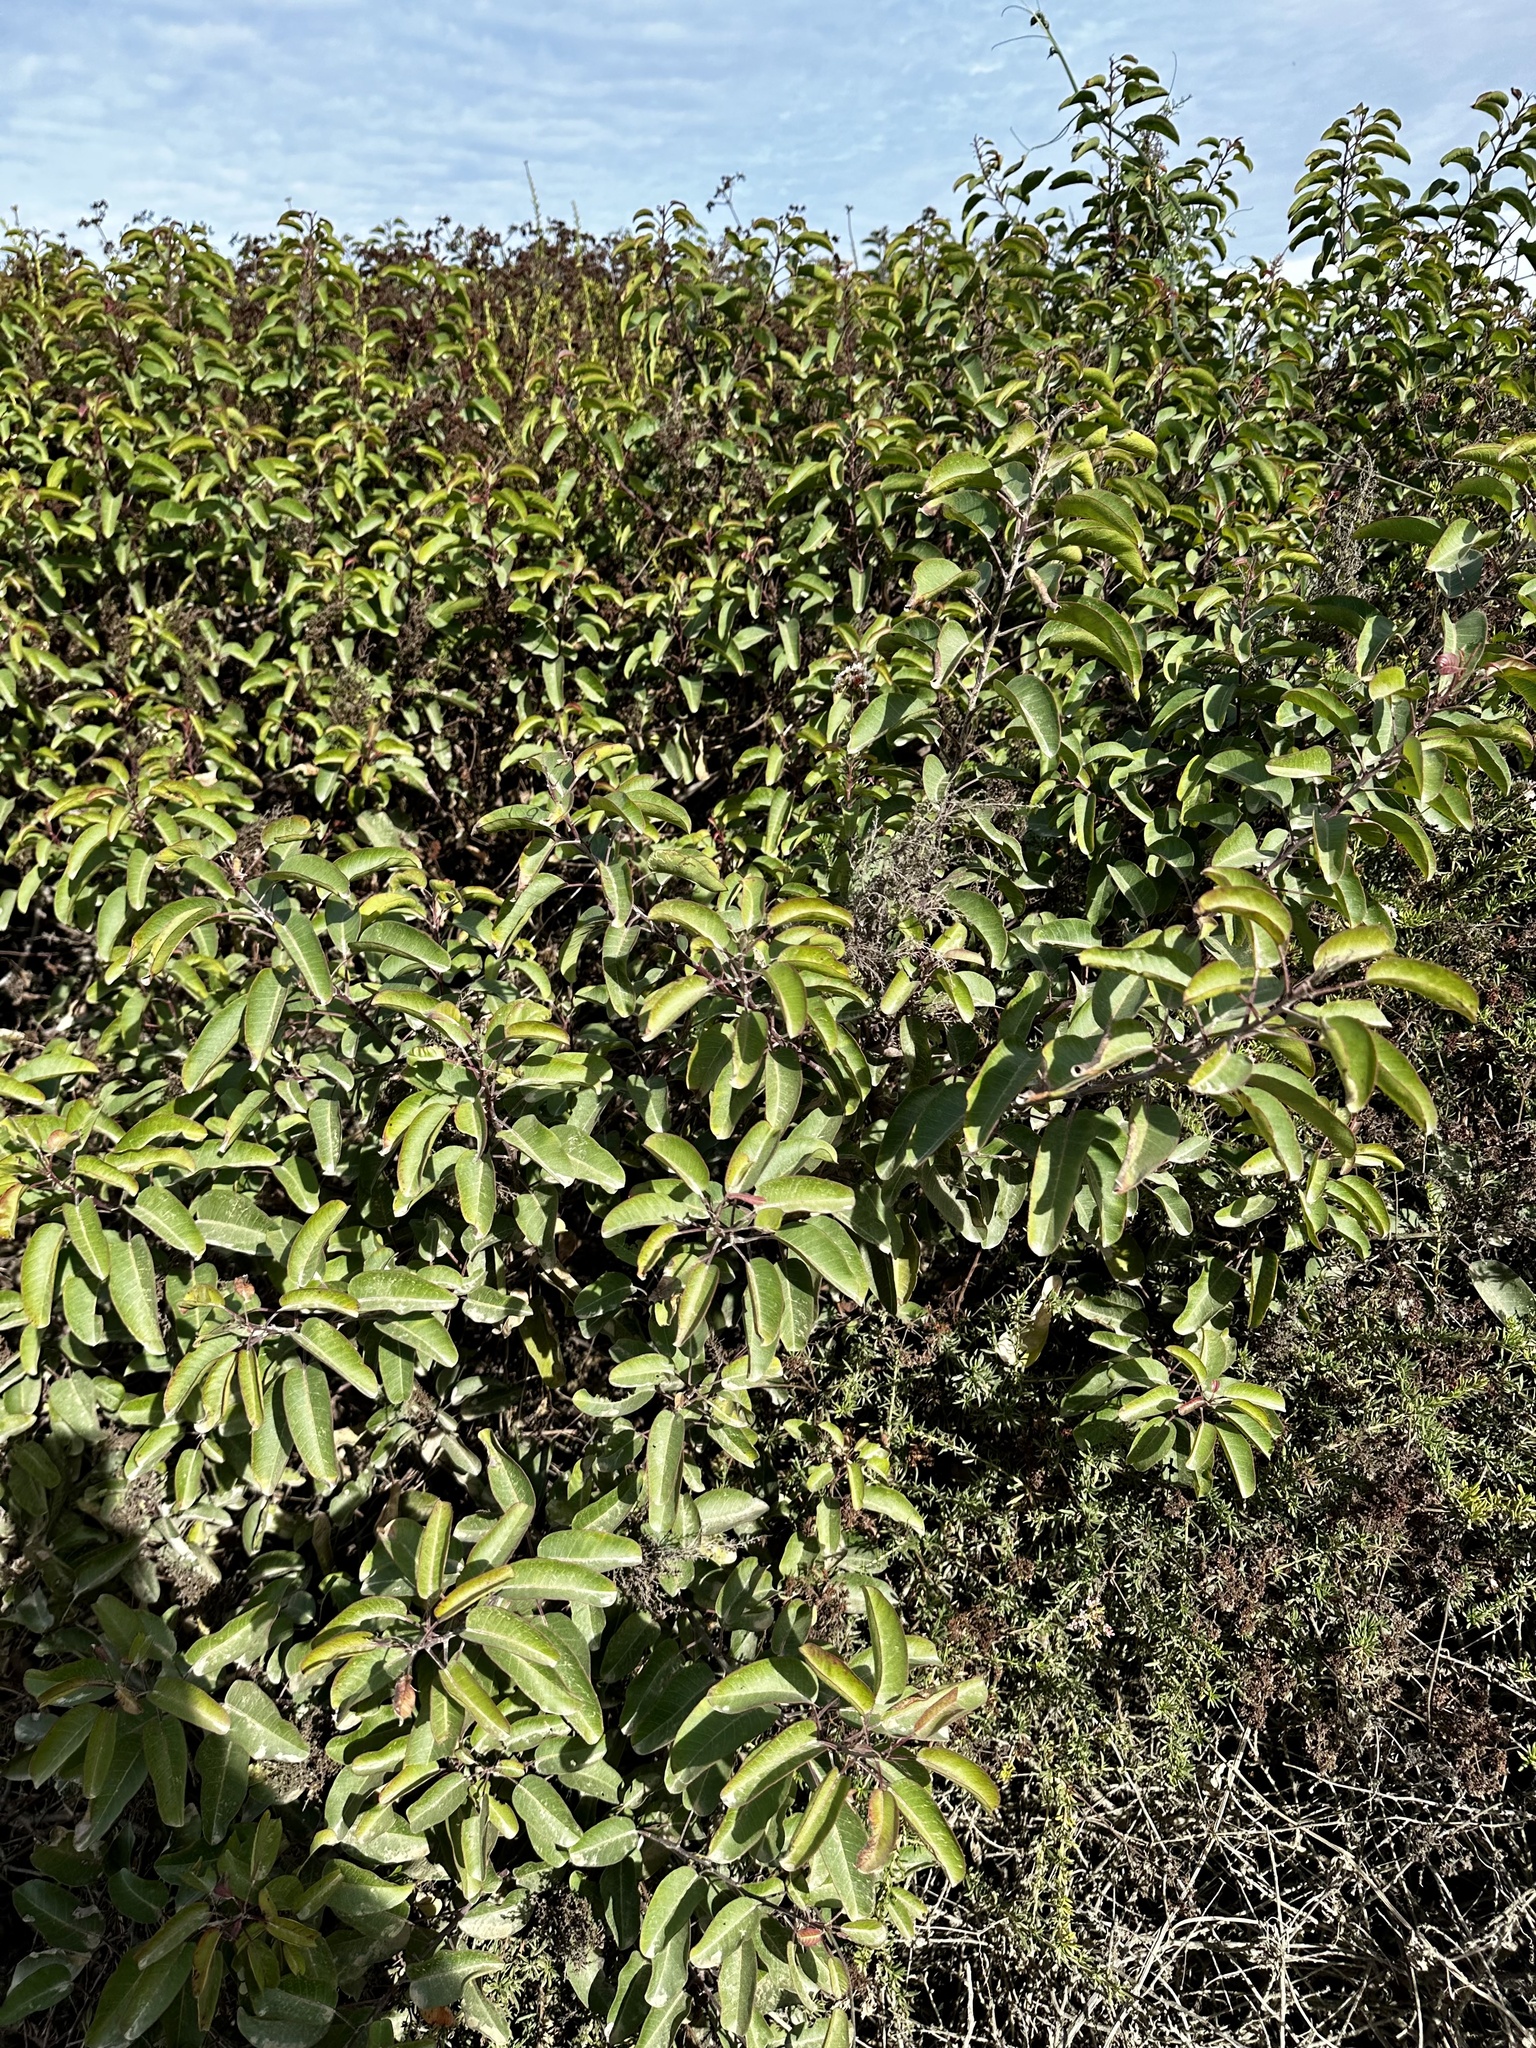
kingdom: Plantae
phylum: Tracheophyta
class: Magnoliopsida
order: Sapindales
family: Anacardiaceae
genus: Malosma
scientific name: Malosma laurina
